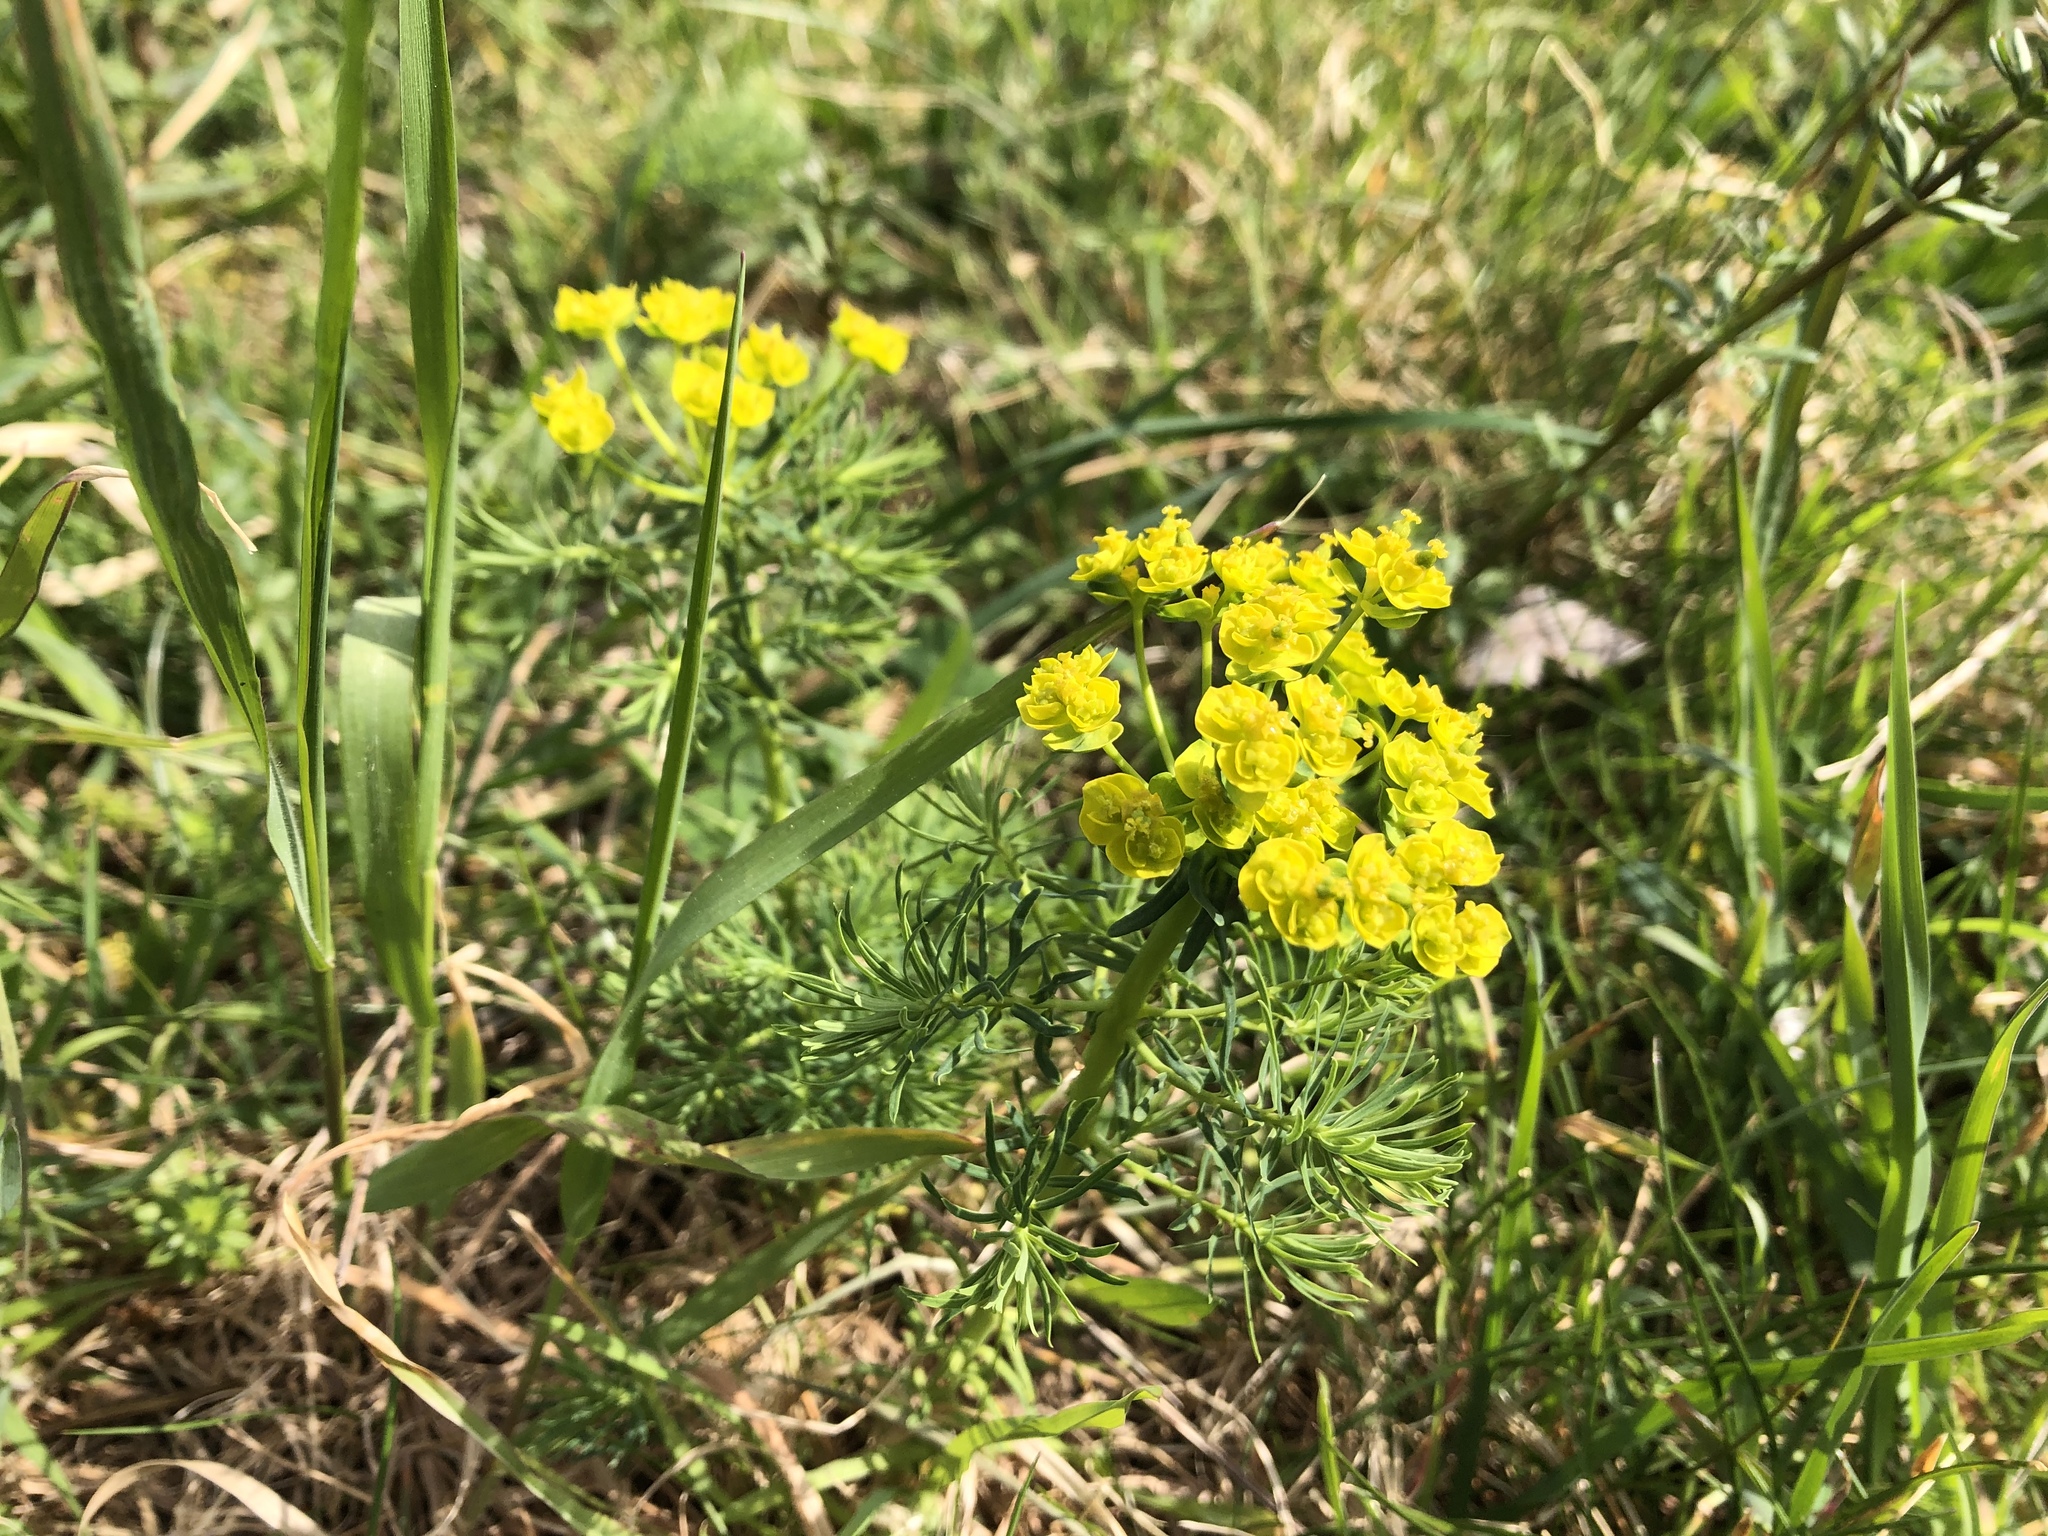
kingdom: Plantae
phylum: Tracheophyta
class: Magnoliopsida
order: Malpighiales
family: Euphorbiaceae
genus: Euphorbia
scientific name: Euphorbia cyparissias
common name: Cypress spurge
